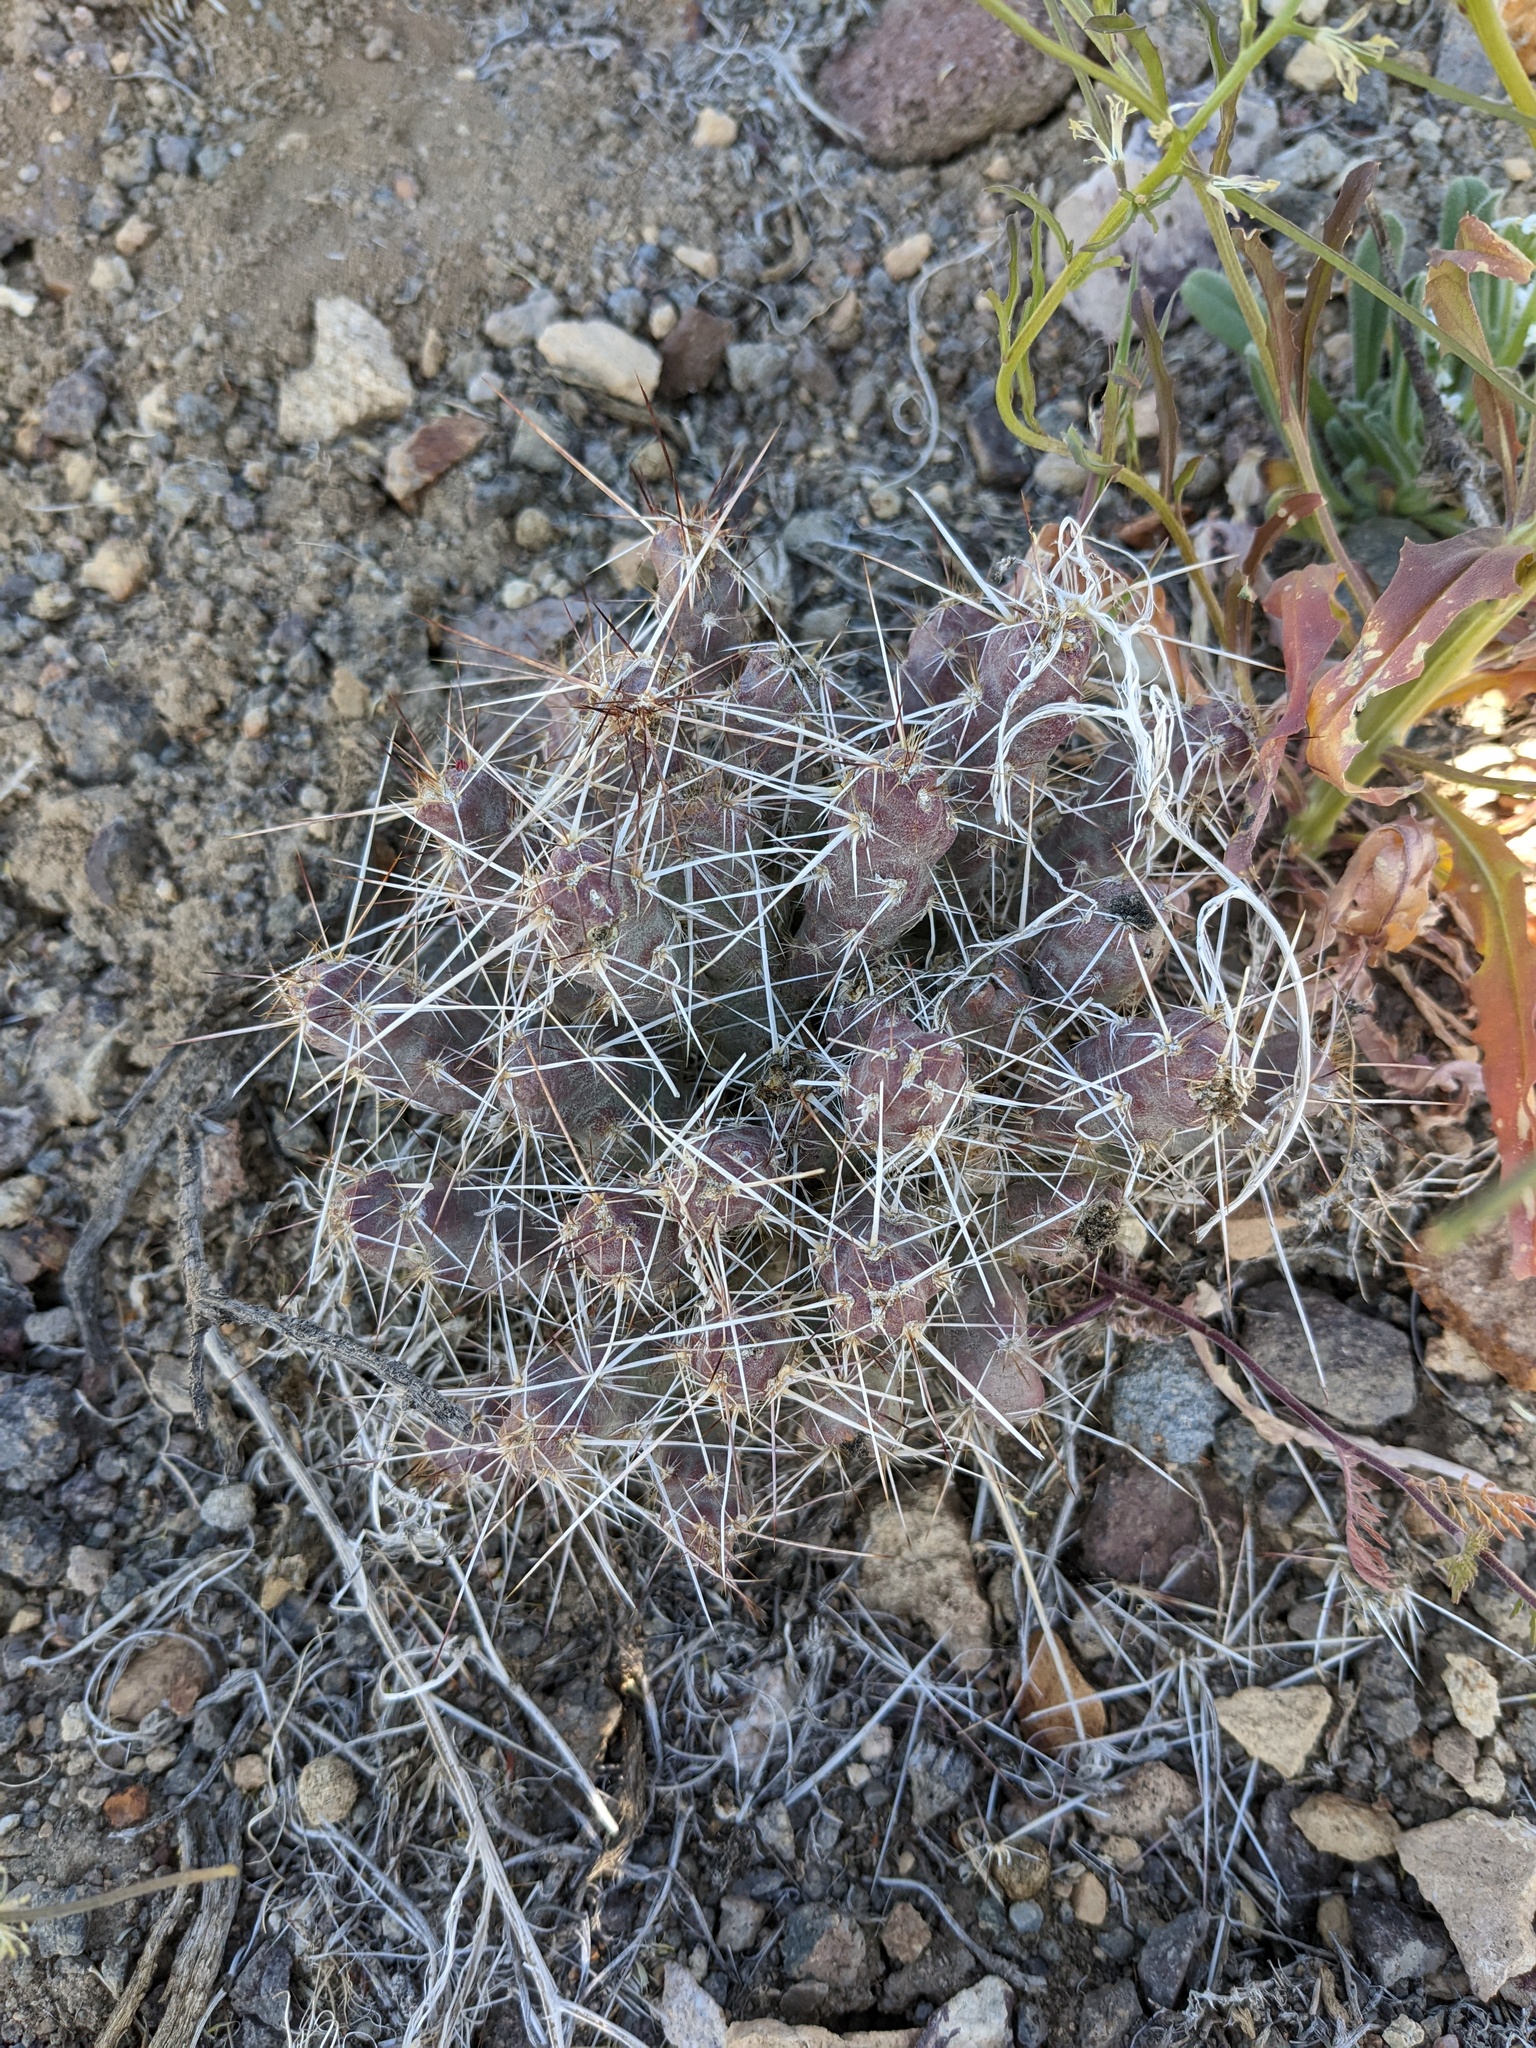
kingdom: Plantae
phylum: Tracheophyta
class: Magnoliopsida
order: Caryophyllales
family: Cactaceae
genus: Micropuntia
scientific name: Micropuntia pulchella
